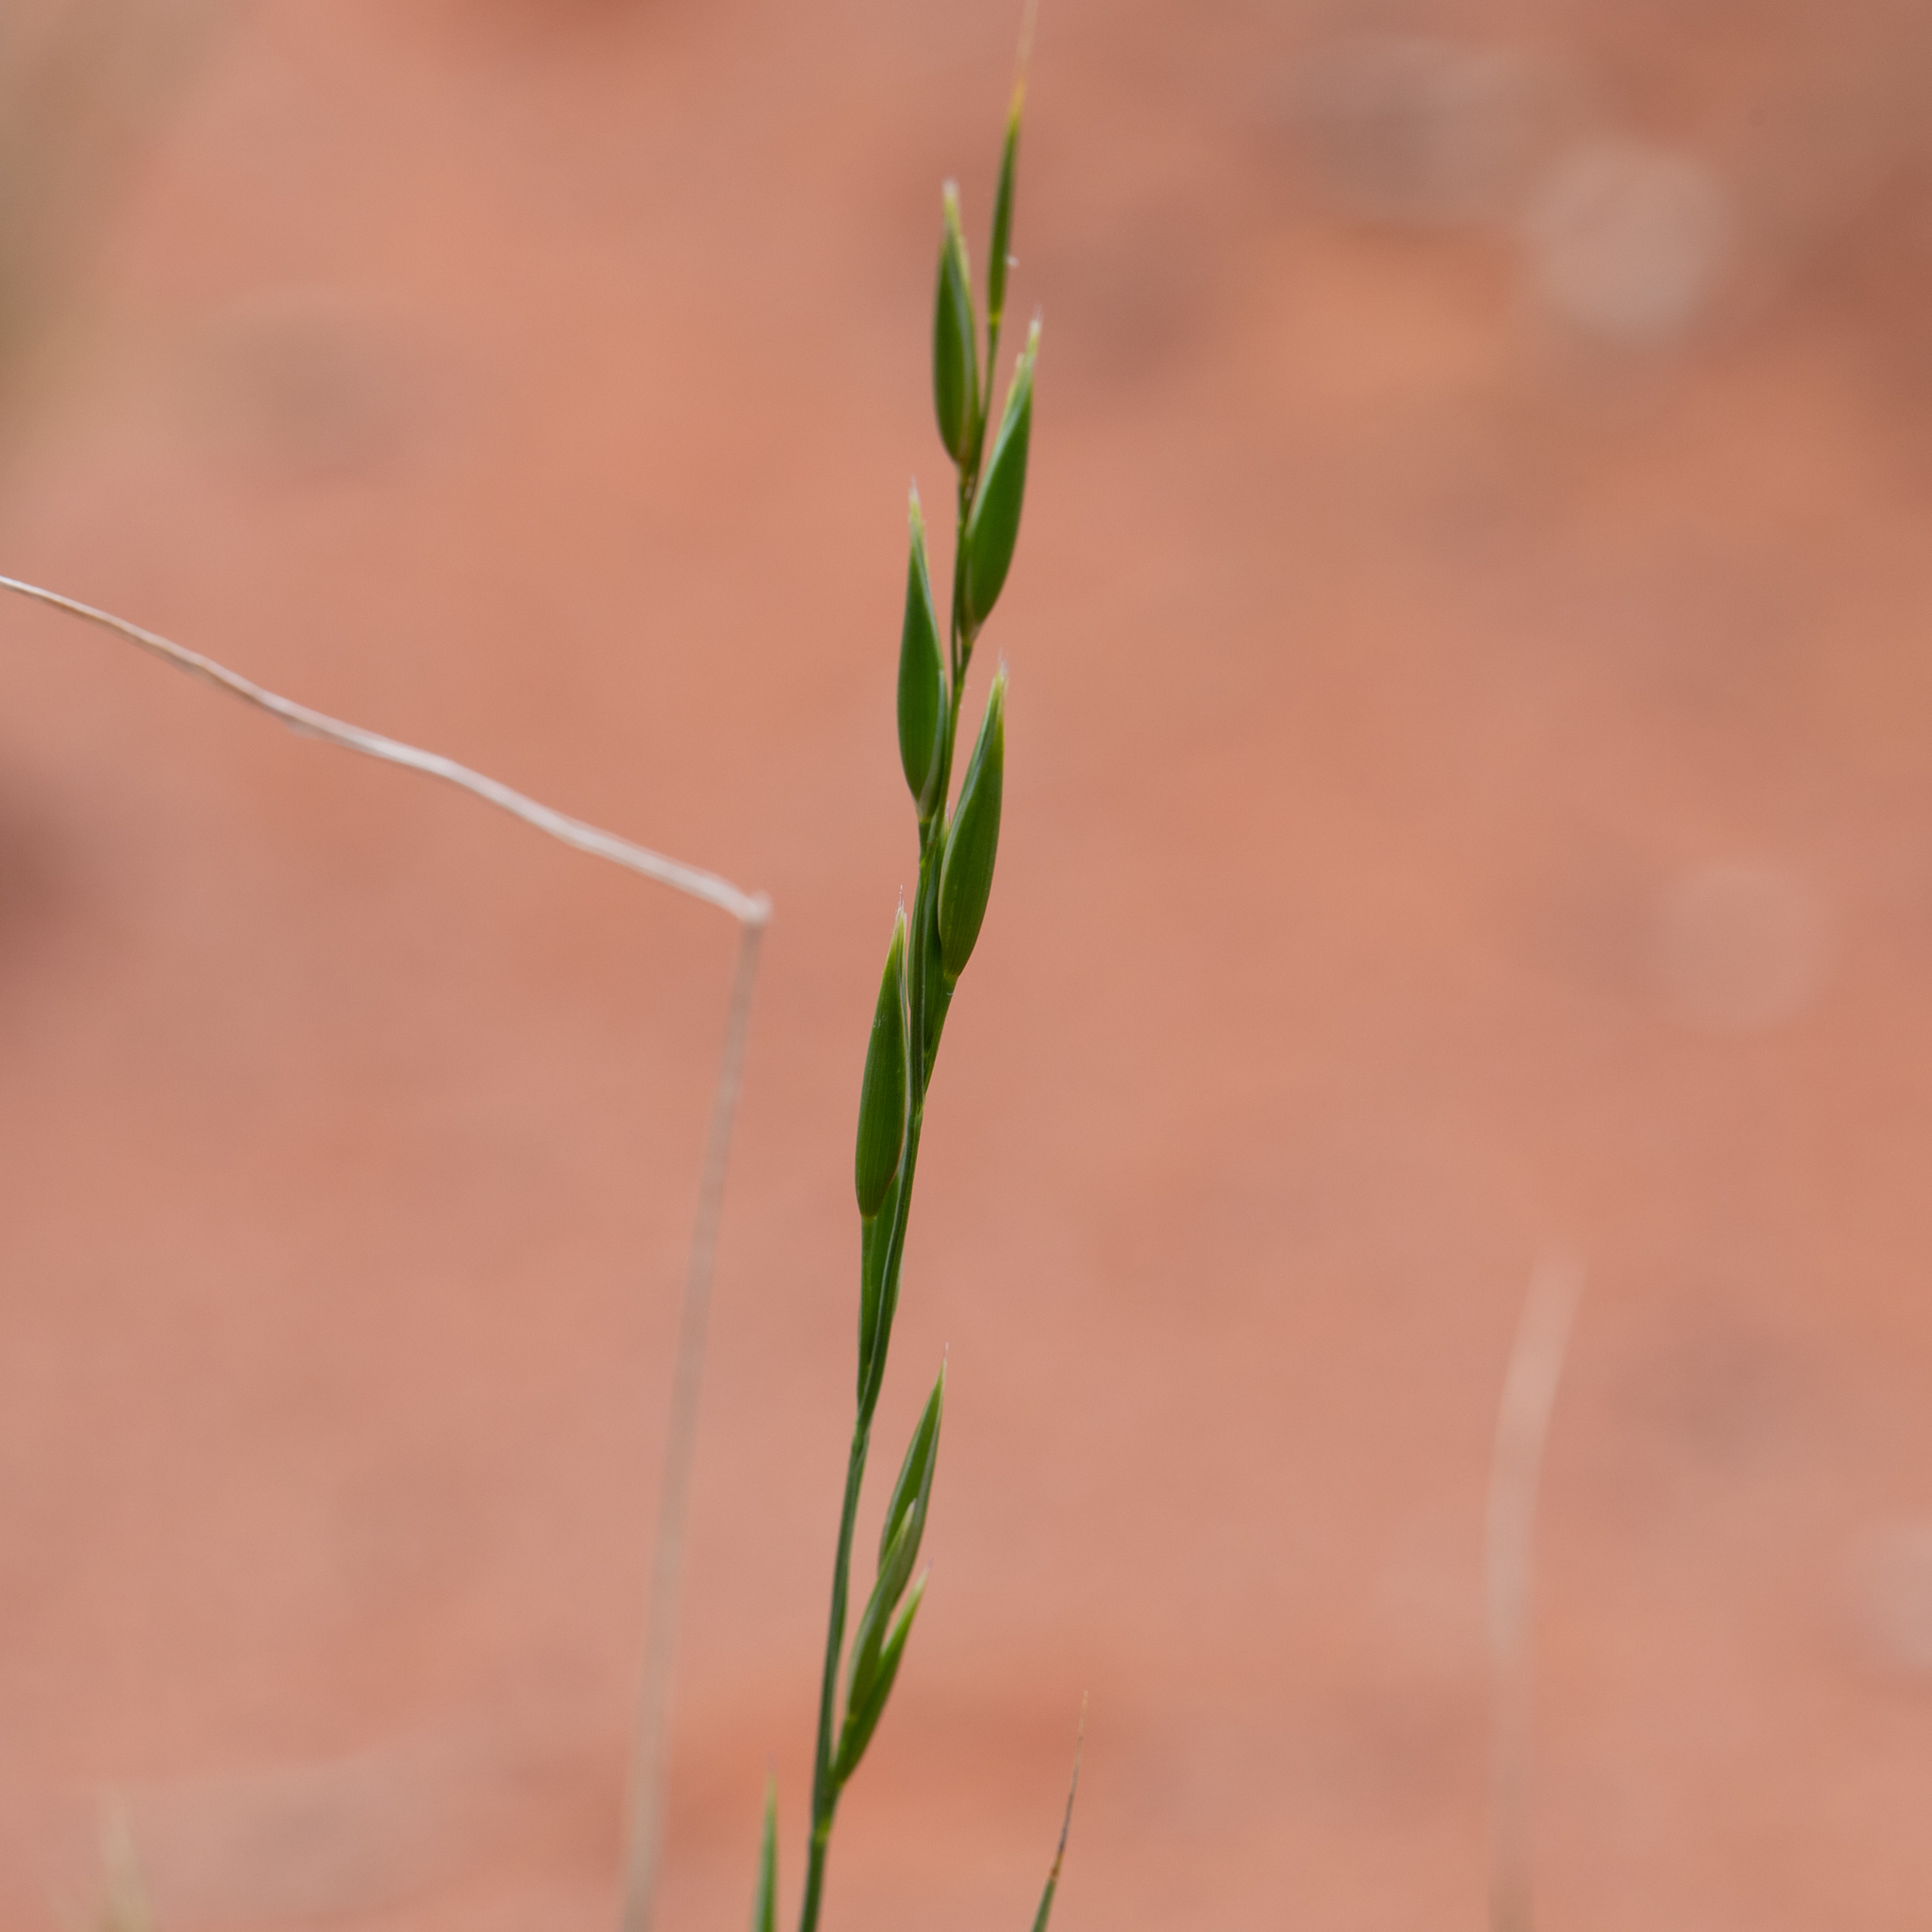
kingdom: Plantae
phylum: Tracheophyta
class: Liliopsida
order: Poales
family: Poaceae
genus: Monachather
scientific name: Monachather paradoxus
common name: Bandicoot grass
